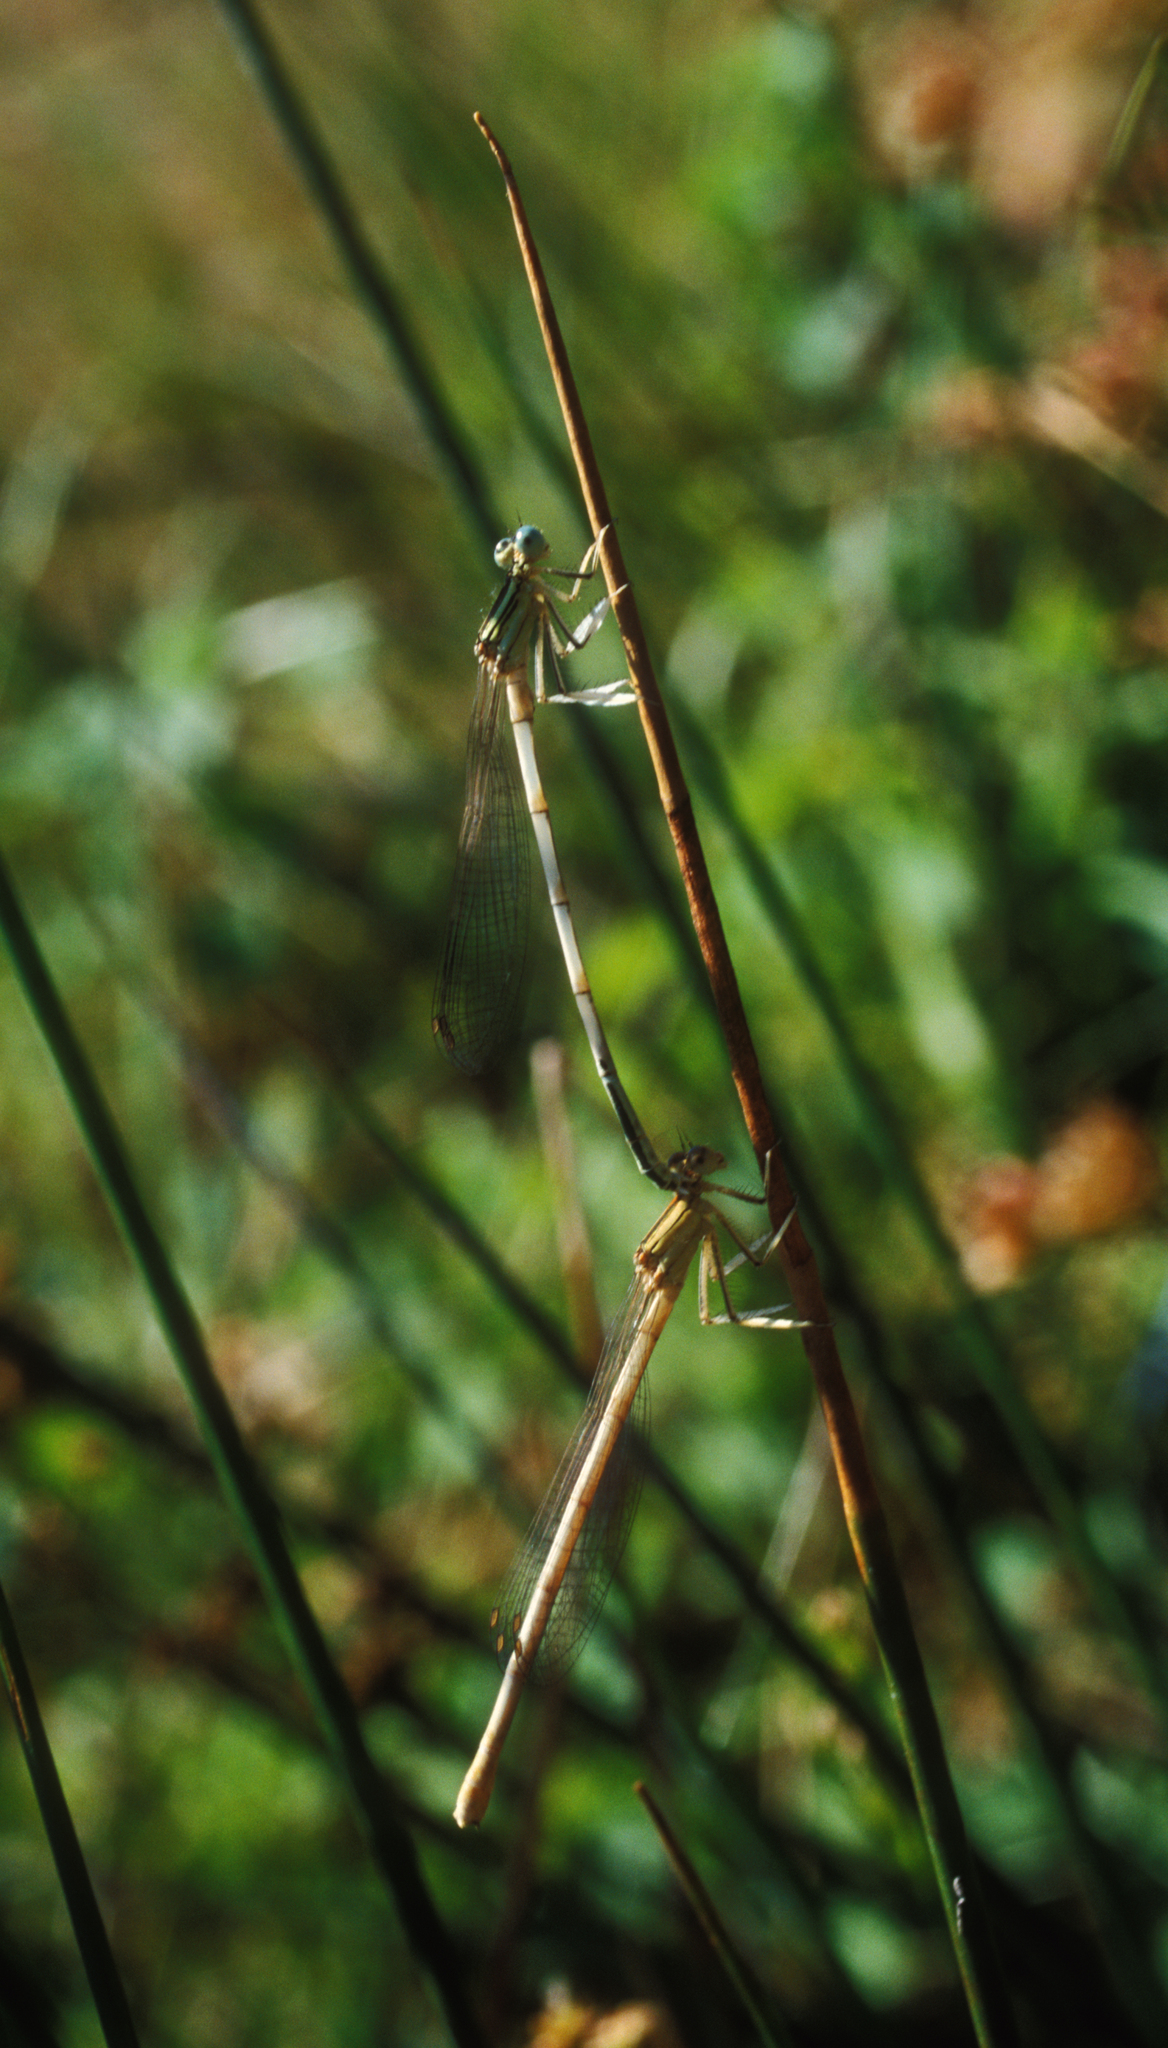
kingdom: Animalia
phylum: Arthropoda
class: Insecta
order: Odonata
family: Platycnemididae
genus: Platycnemis
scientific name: Platycnemis latipes
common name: White featherleg
